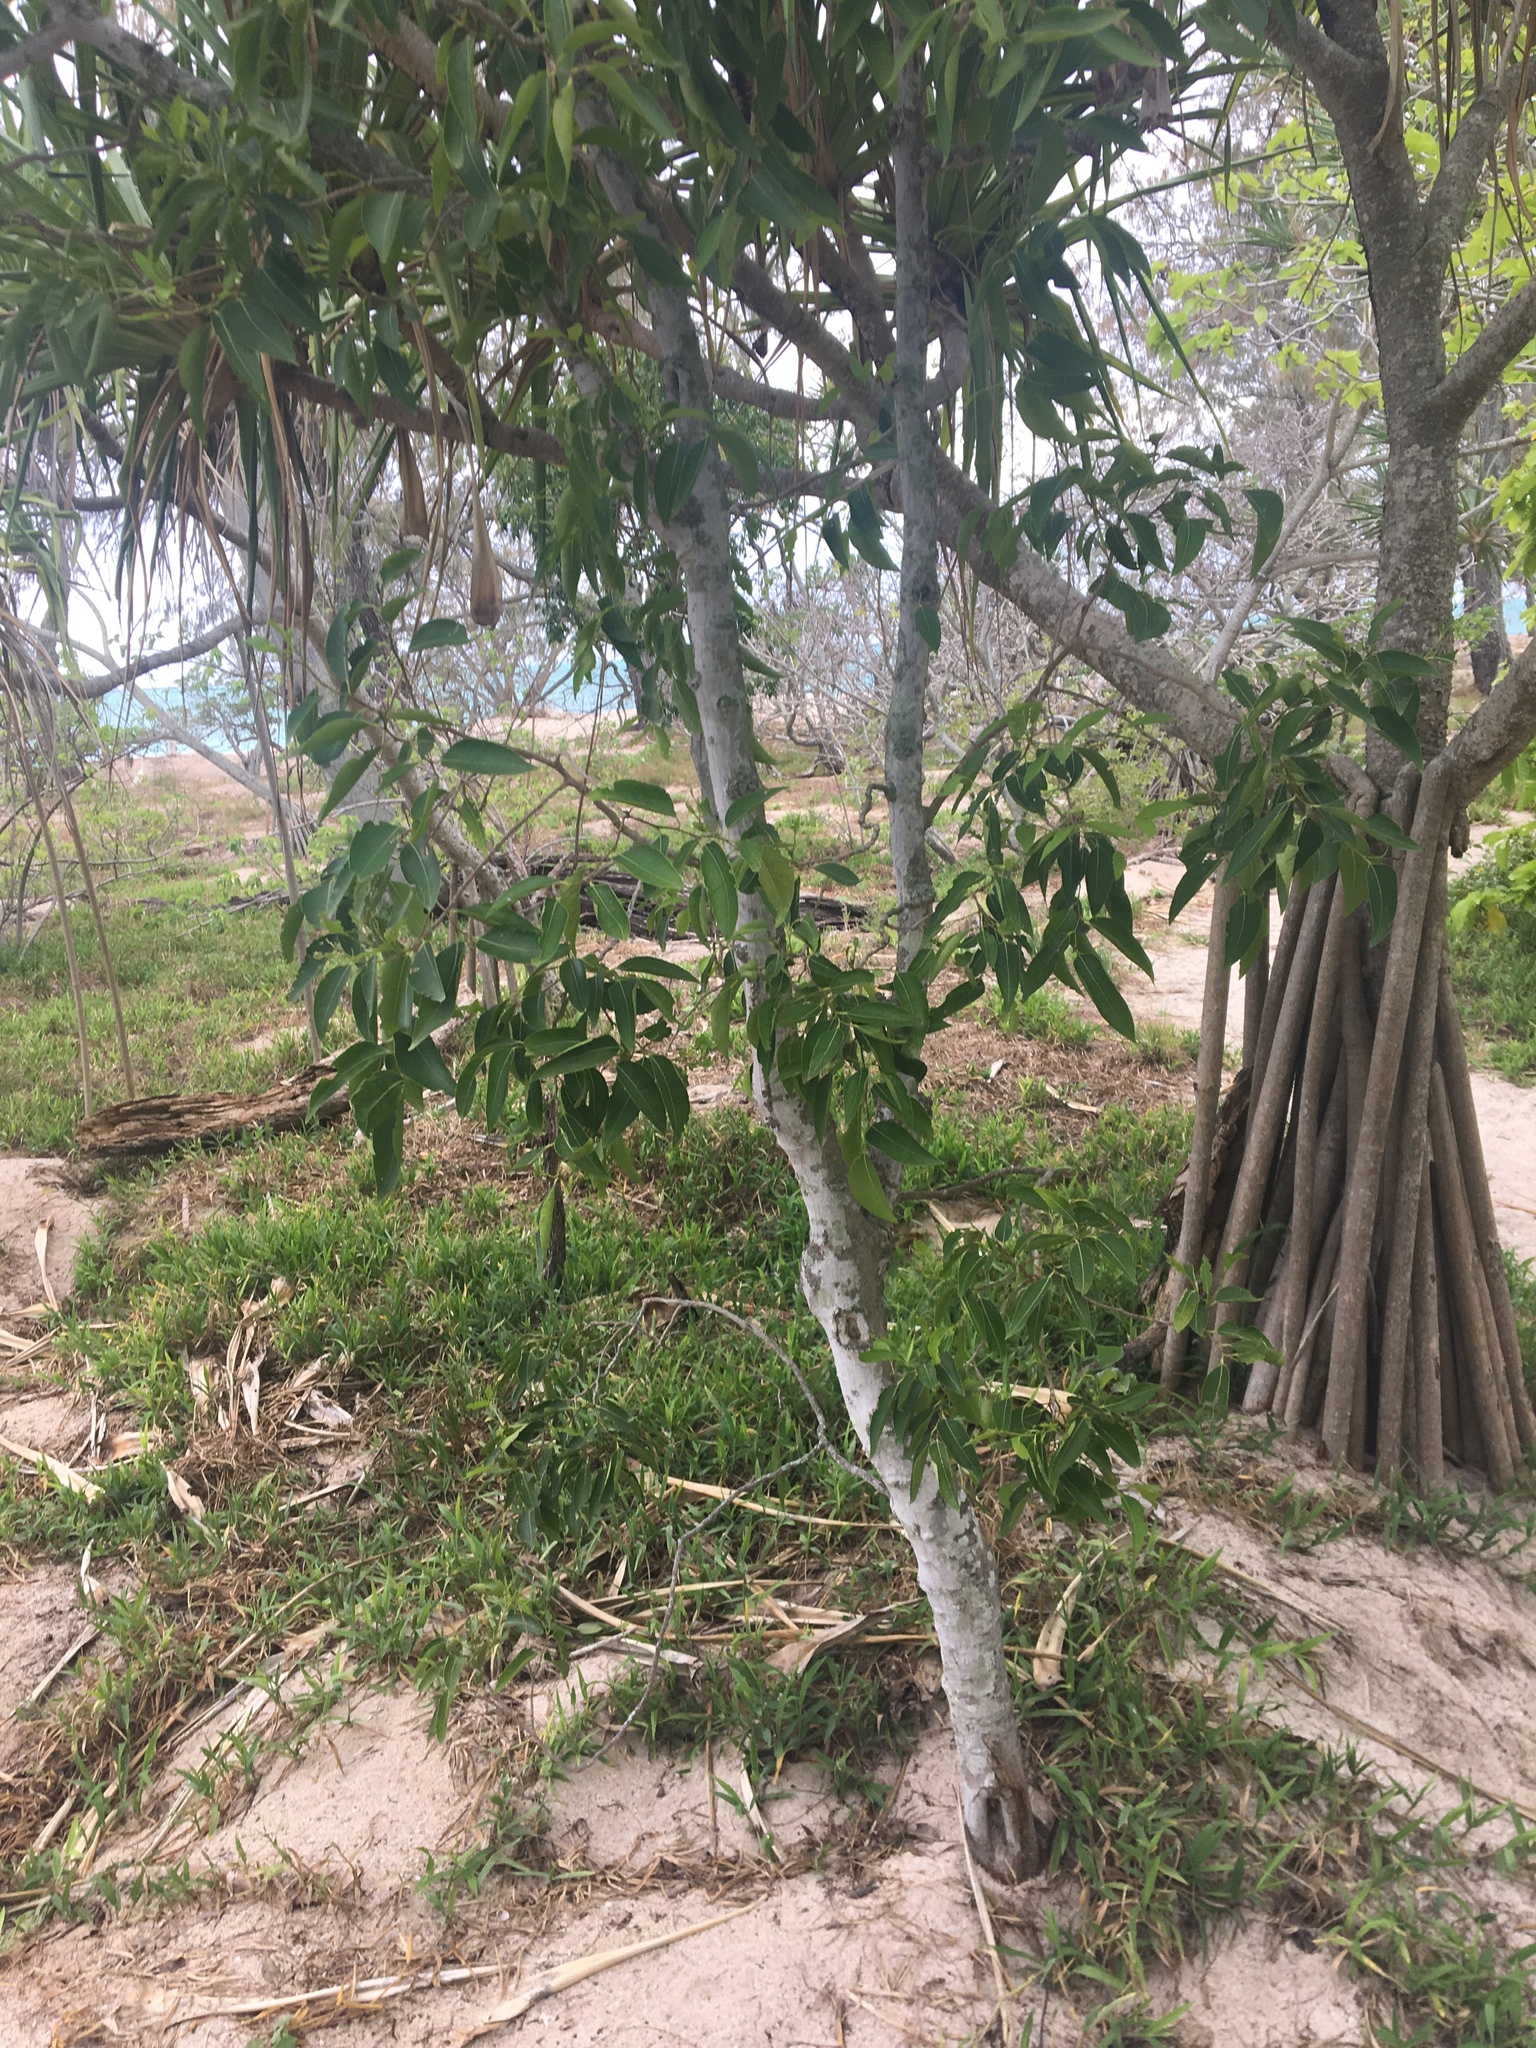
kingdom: Plantae
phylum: Tracheophyta
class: Magnoliopsida
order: Rosales
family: Cannabaceae
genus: Celtis
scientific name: Celtis paniculata
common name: Silky celtis
